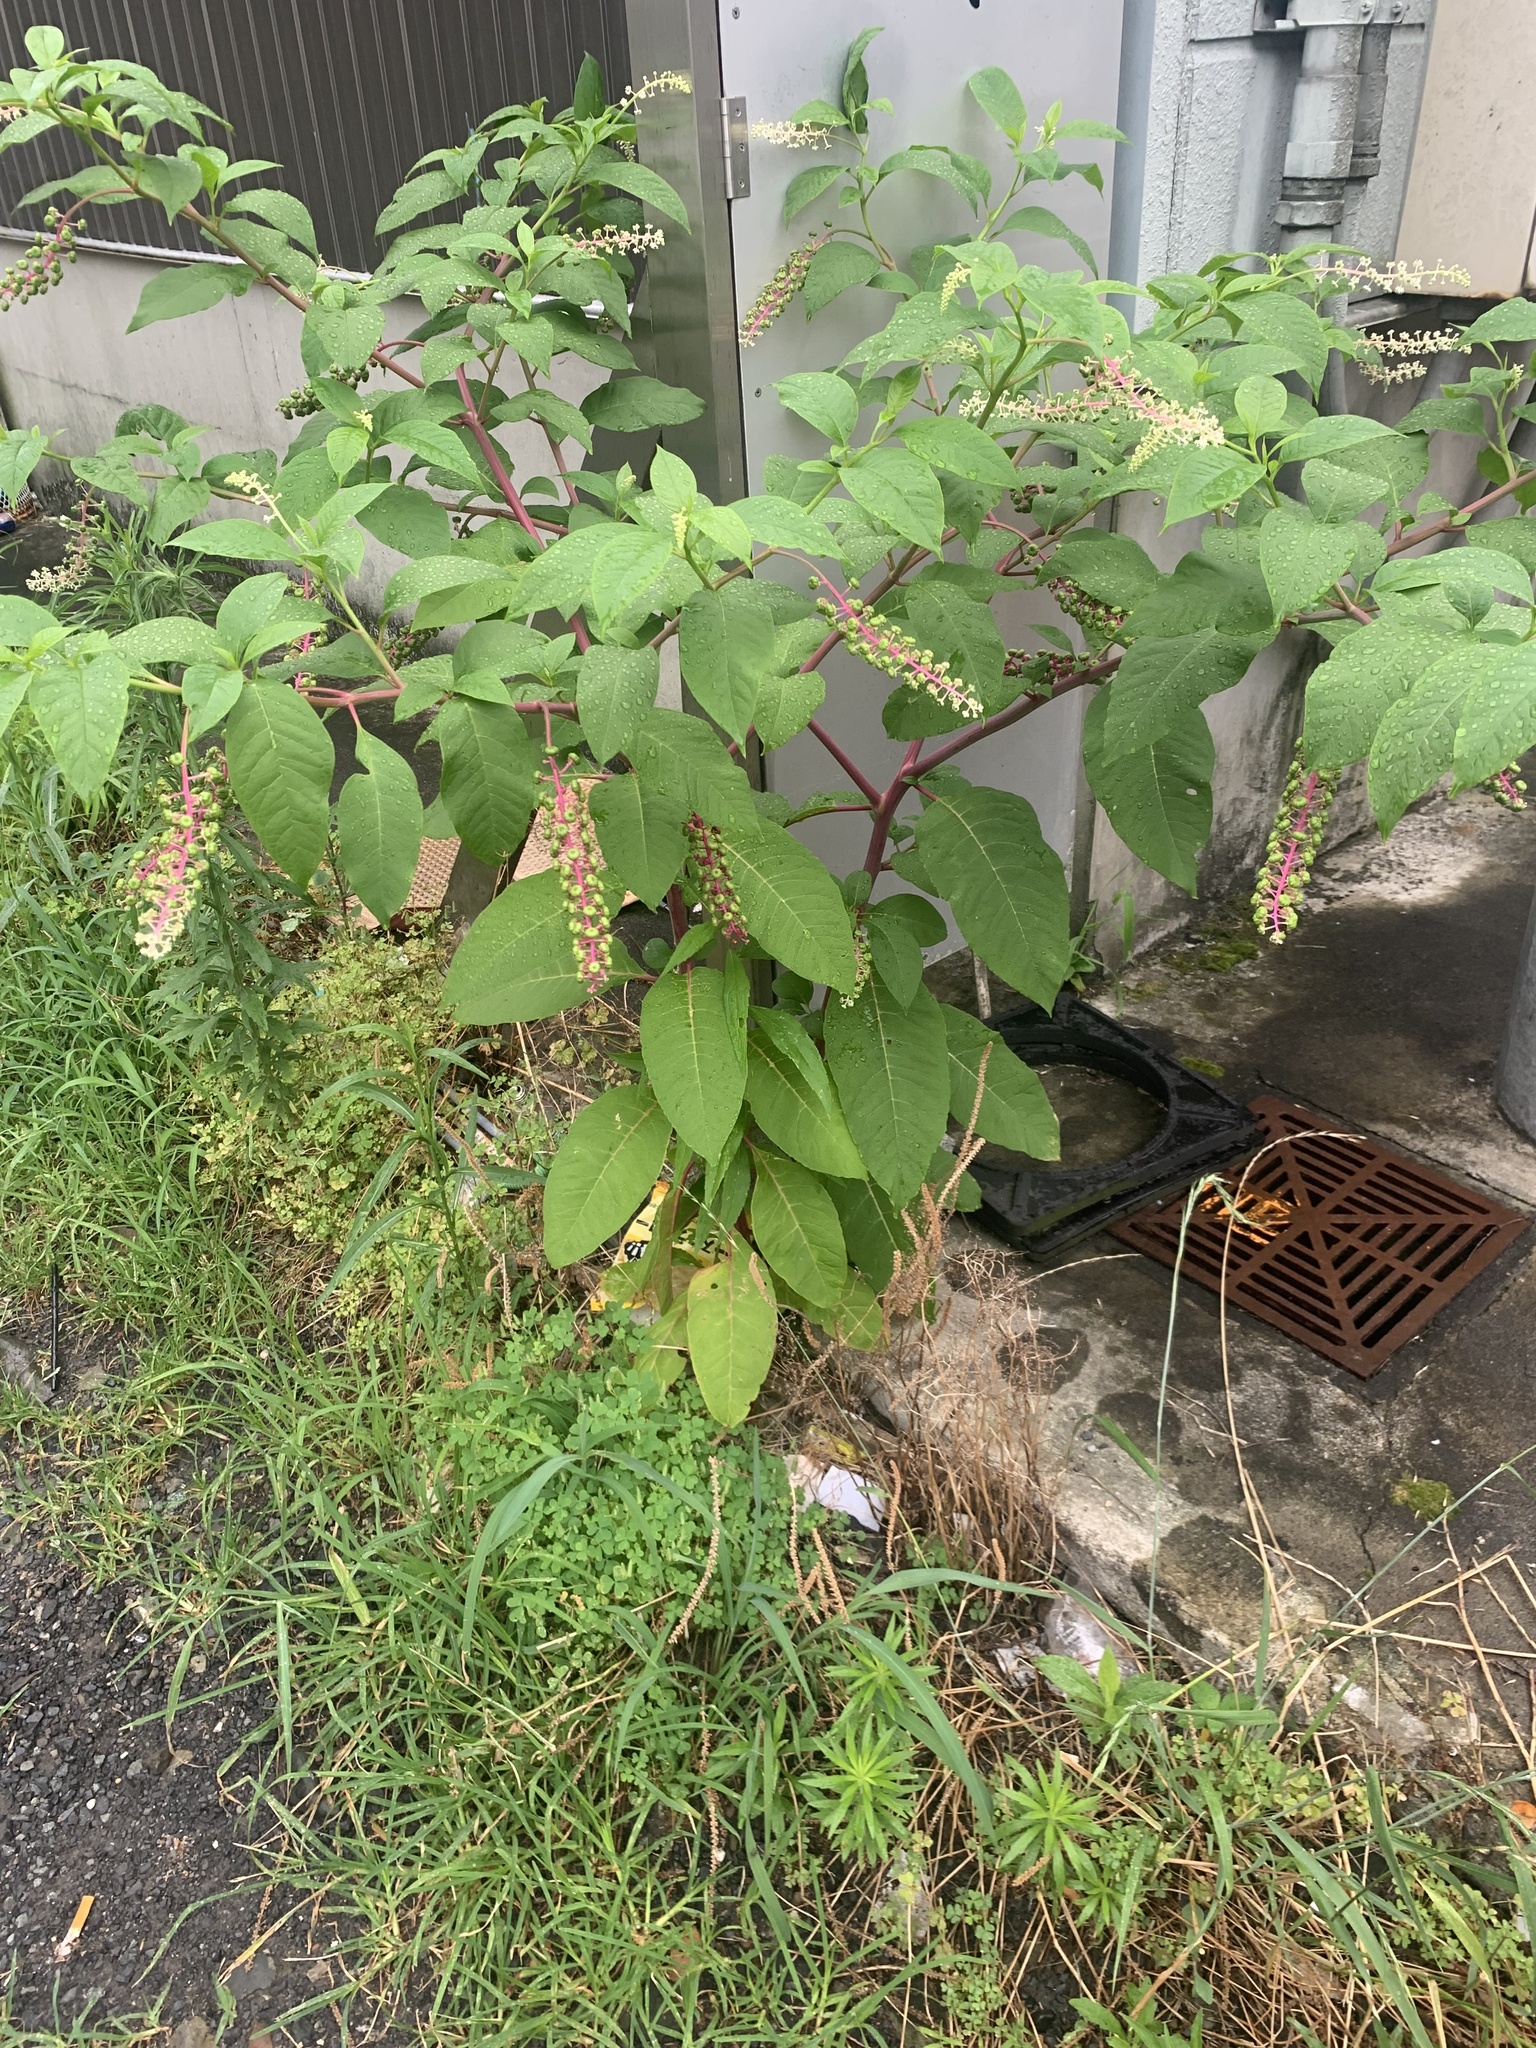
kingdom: Plantae
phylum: Tracheophyta
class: Magnoliopsida
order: Caryophyllales
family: Phytolaccaceae
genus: Phytolacca
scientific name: Phytolacca americana
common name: American pokeweed
